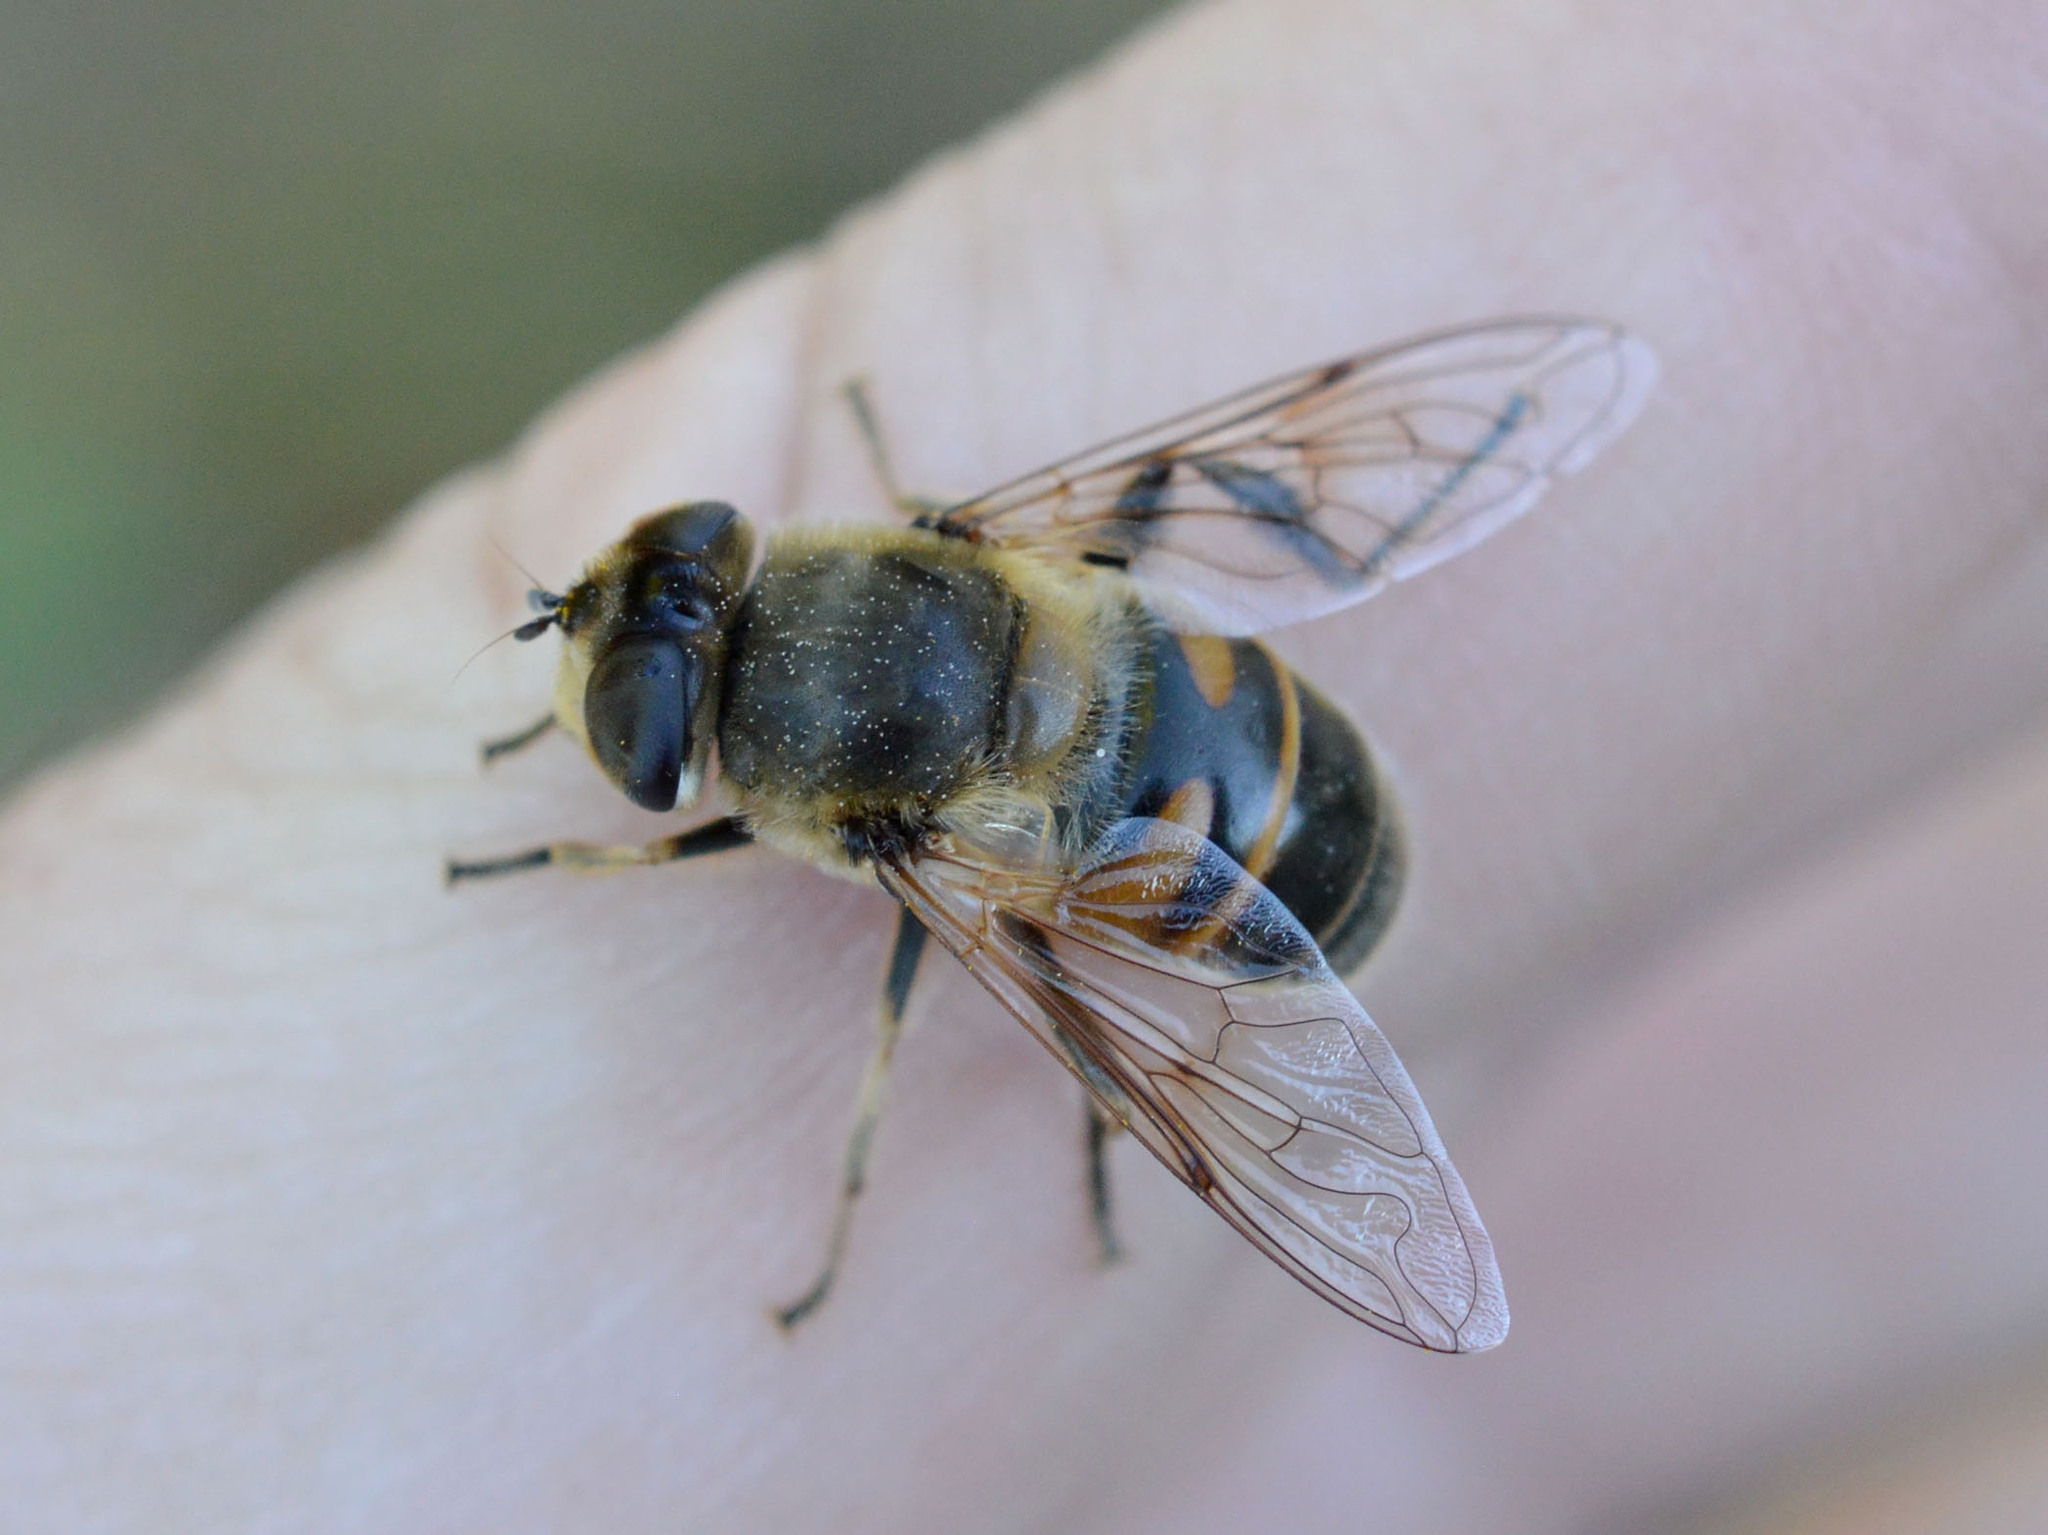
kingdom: Animalia
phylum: Arthropoda
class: Insecta
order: Diptera
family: Syrphidae
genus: Eristalis
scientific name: Eristalis tenax
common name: Drone fly
